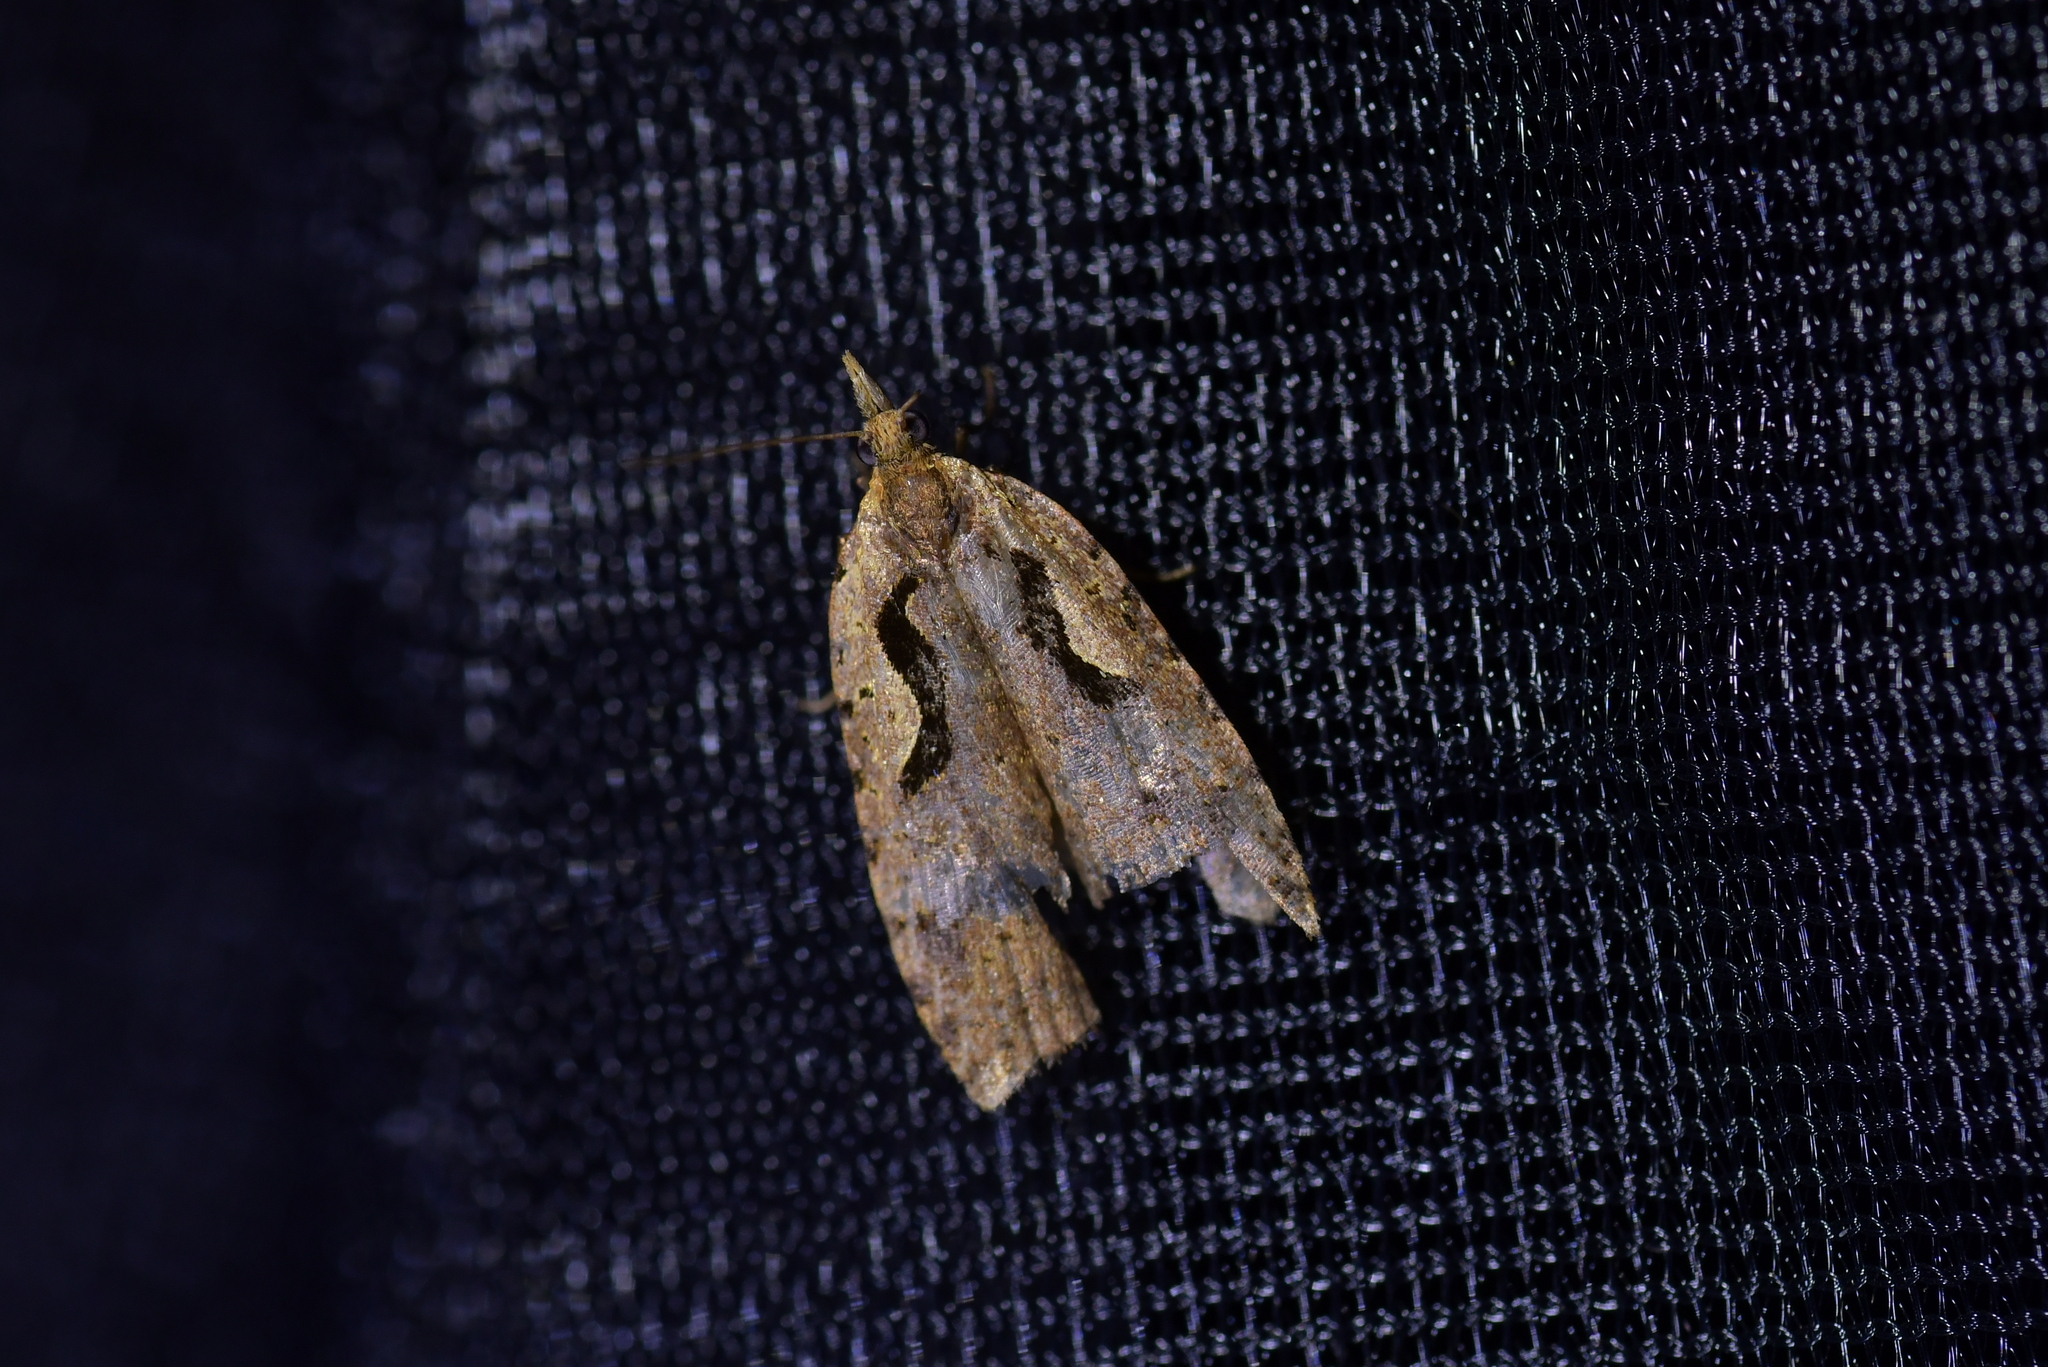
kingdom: Animalia
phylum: Arthropoda
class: Insecta
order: Lepidoptera
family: Tortricidae
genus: Cnephasia
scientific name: Cnephasia jactatana
